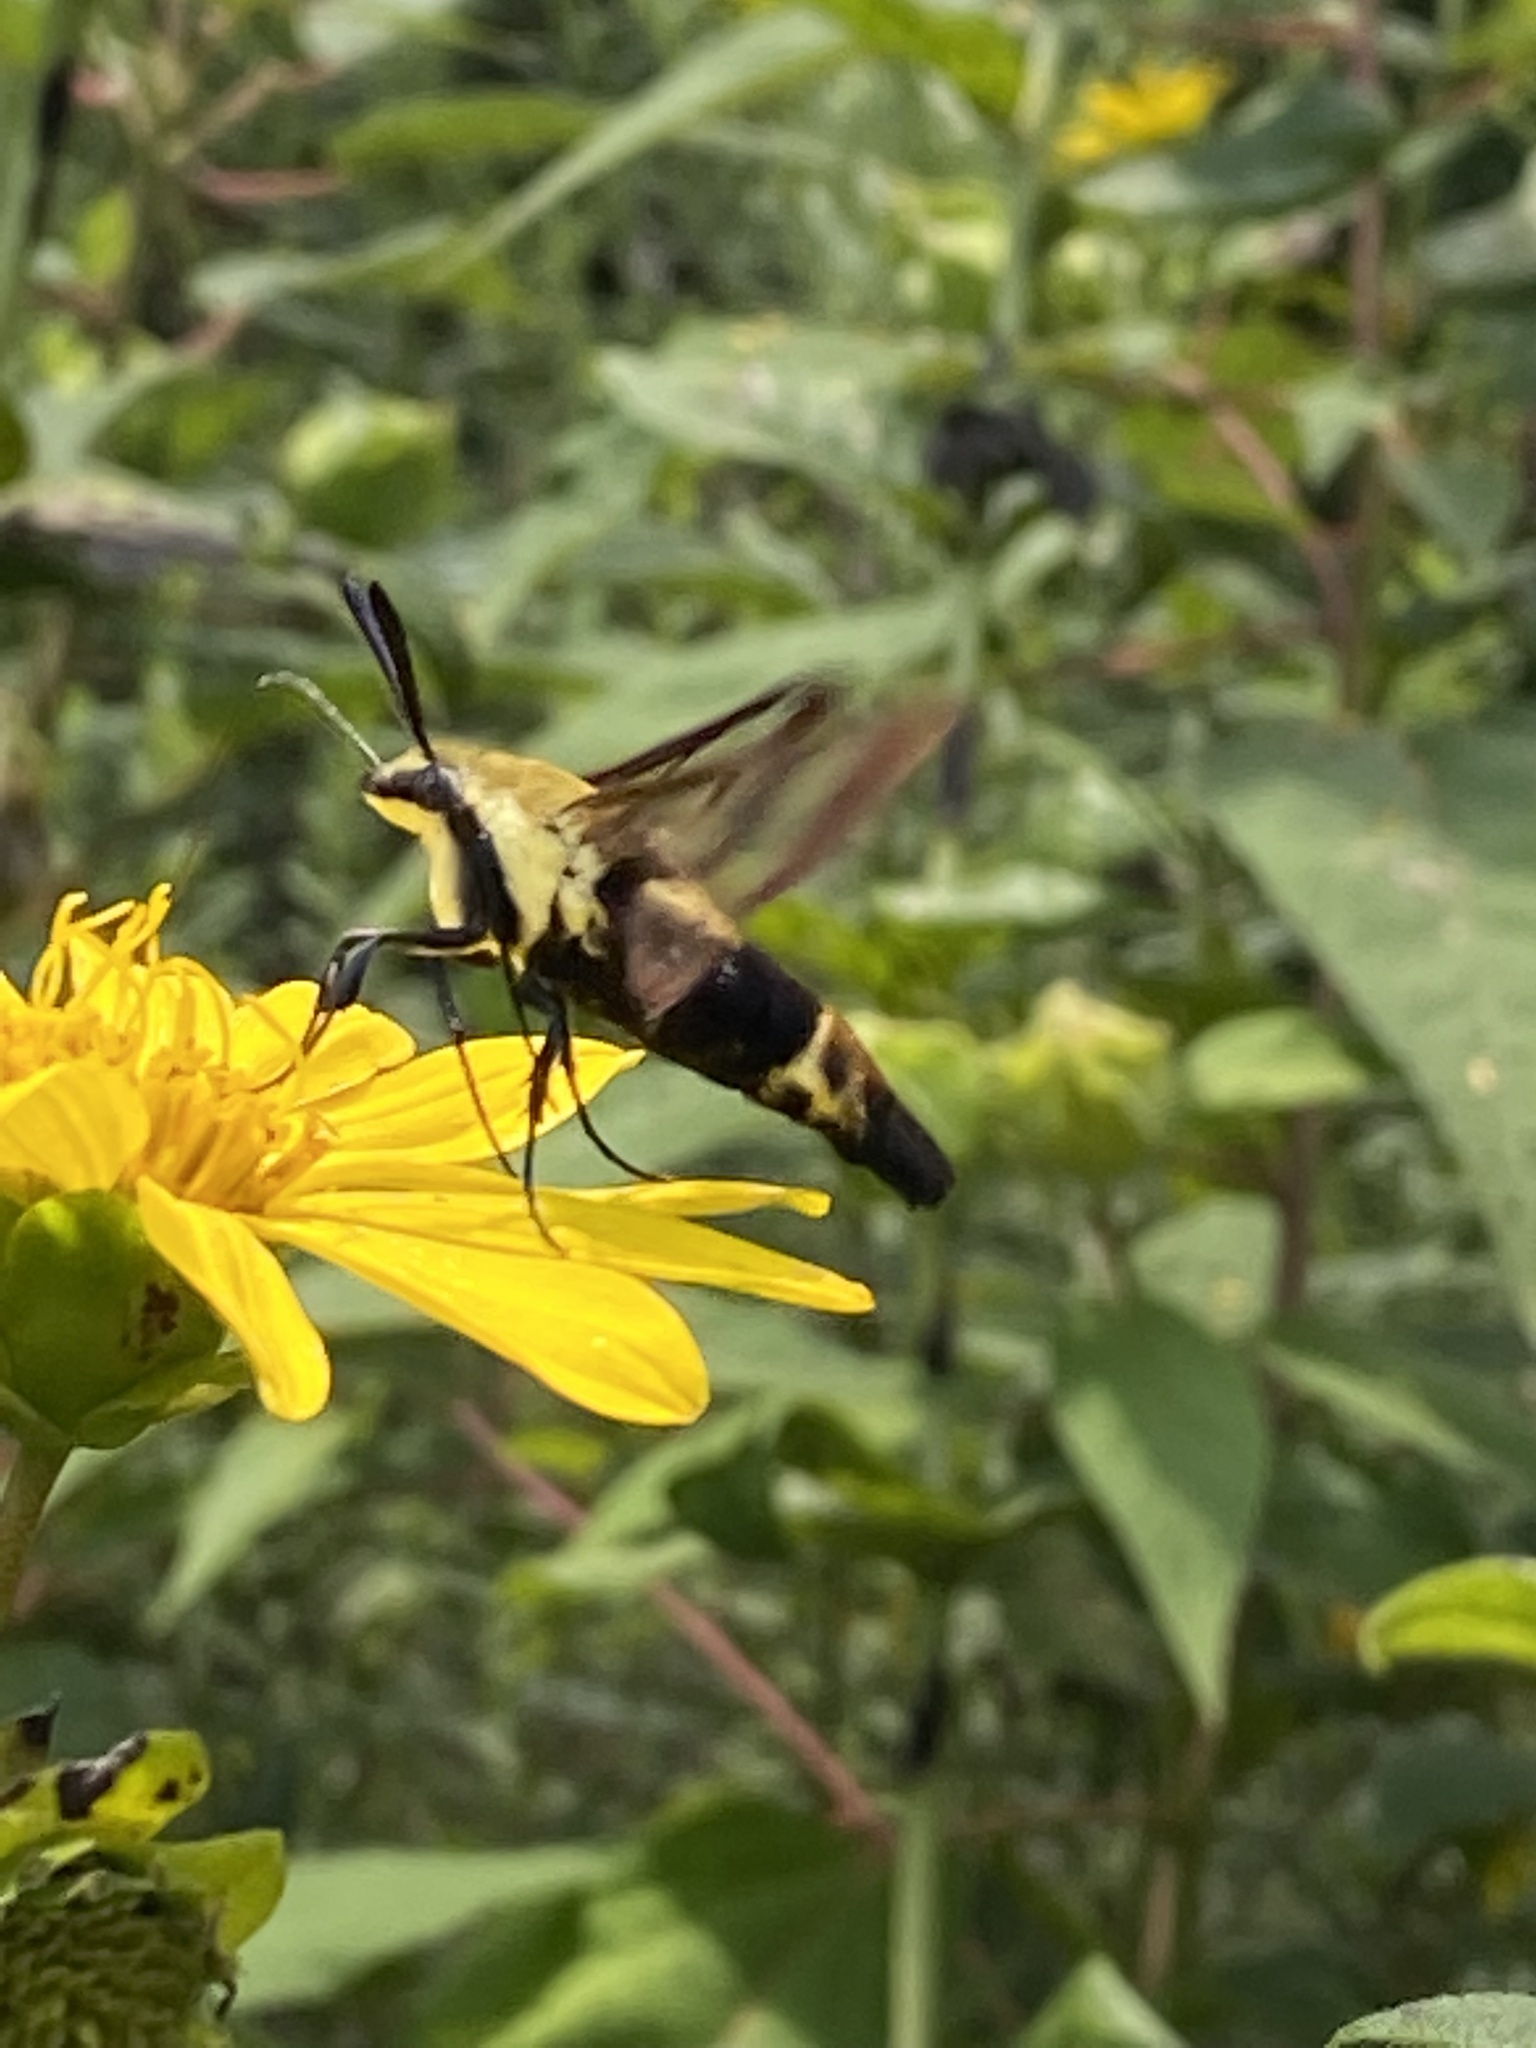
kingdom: Animalia
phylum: Arthropoda
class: Insecta
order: Lepidoptera
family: Sphingidae
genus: Hemaris
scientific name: Hemaris diffinis
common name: Bumblebee moth
